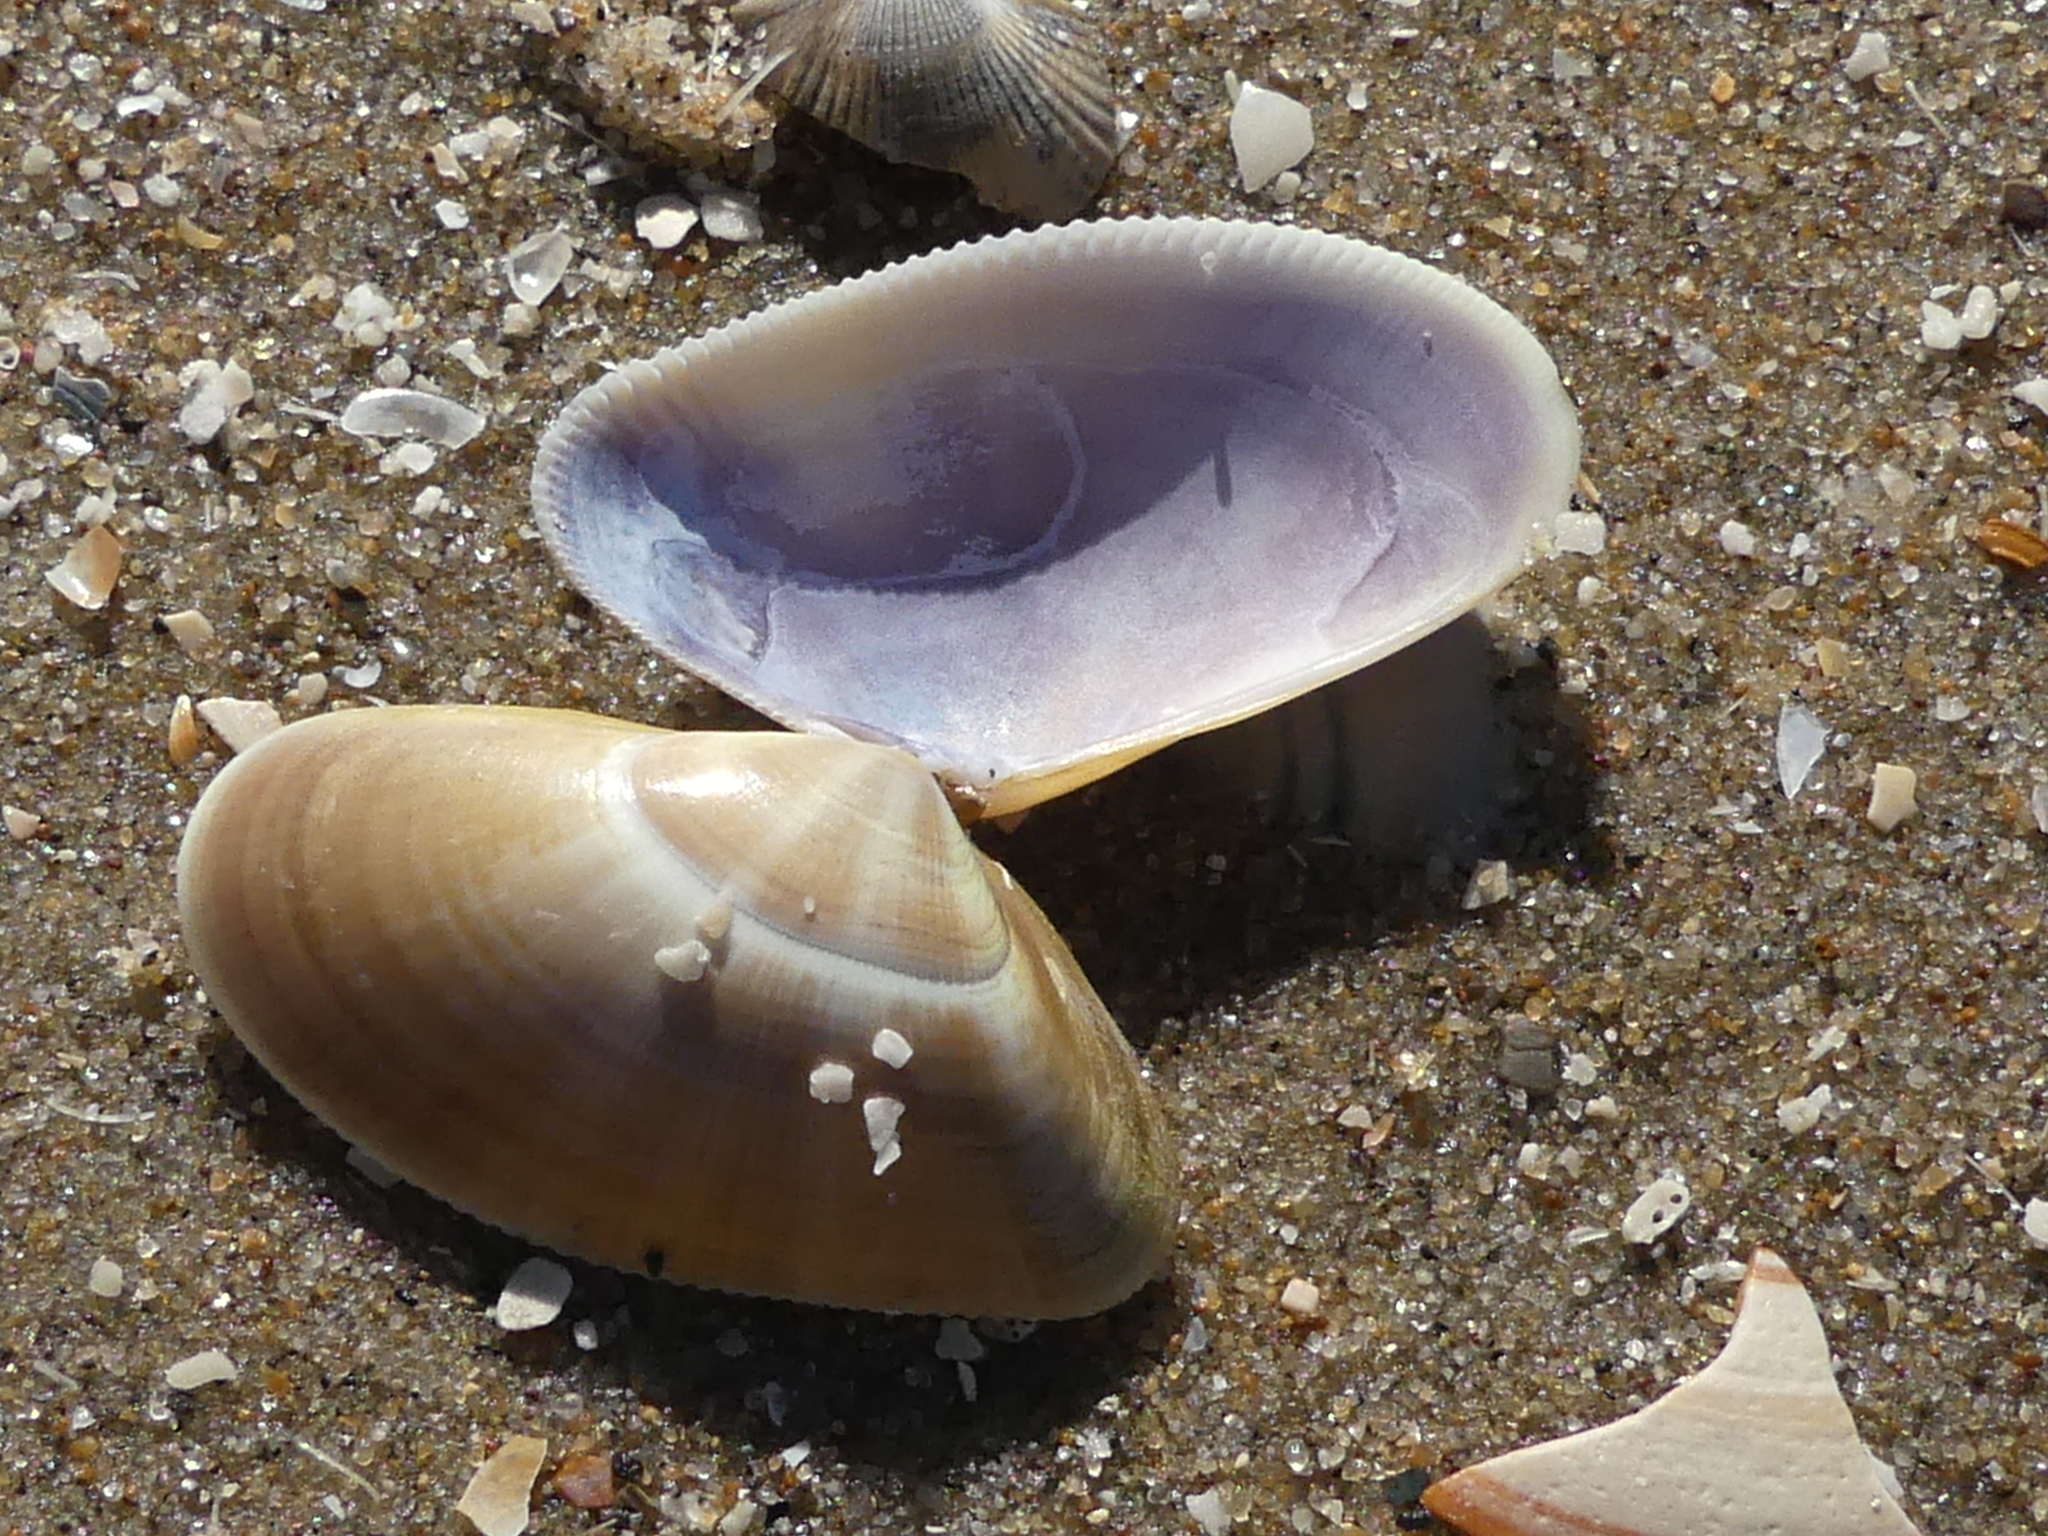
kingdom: Animalia
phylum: Mollusca
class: Bivalvia
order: Cardiida
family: Donacidae
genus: Donax
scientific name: Donax vittatus
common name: Banded wedge-shell
